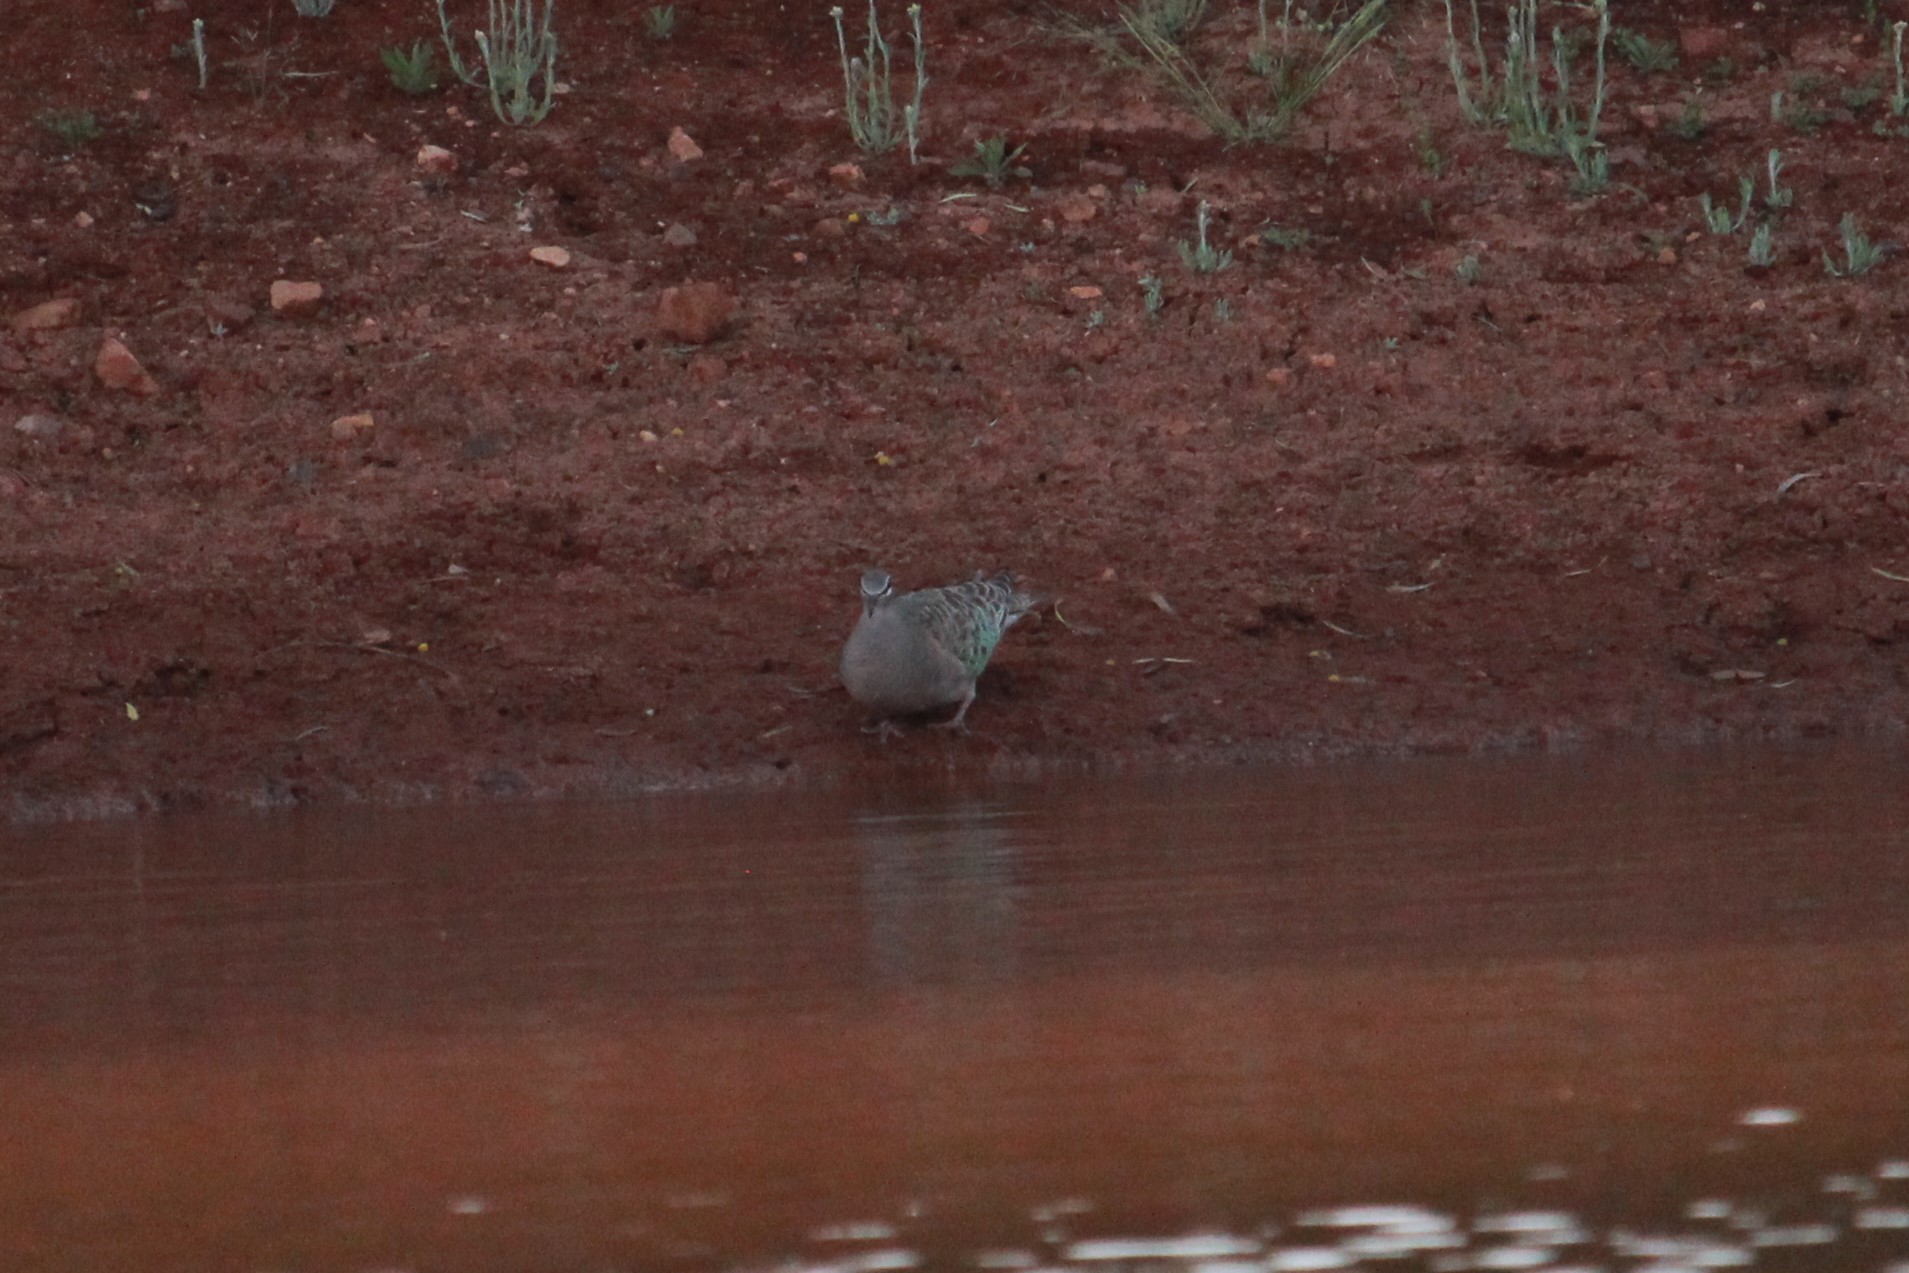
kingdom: Animalia
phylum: Chordata
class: Aves
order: Columbiformes
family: Columbidae
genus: Phaps
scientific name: Phaps chalcoptera
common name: Common bronzewing
